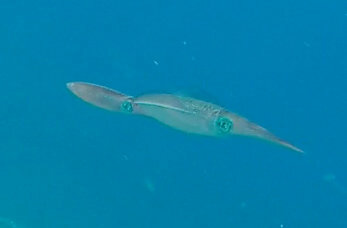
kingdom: Animalia
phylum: Mollusca
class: Cephalopoda
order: Myopsida
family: Loliginidae
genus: Sepioteuthis
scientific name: Sepioteuthis lessoniana
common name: Bigfin reef squid
